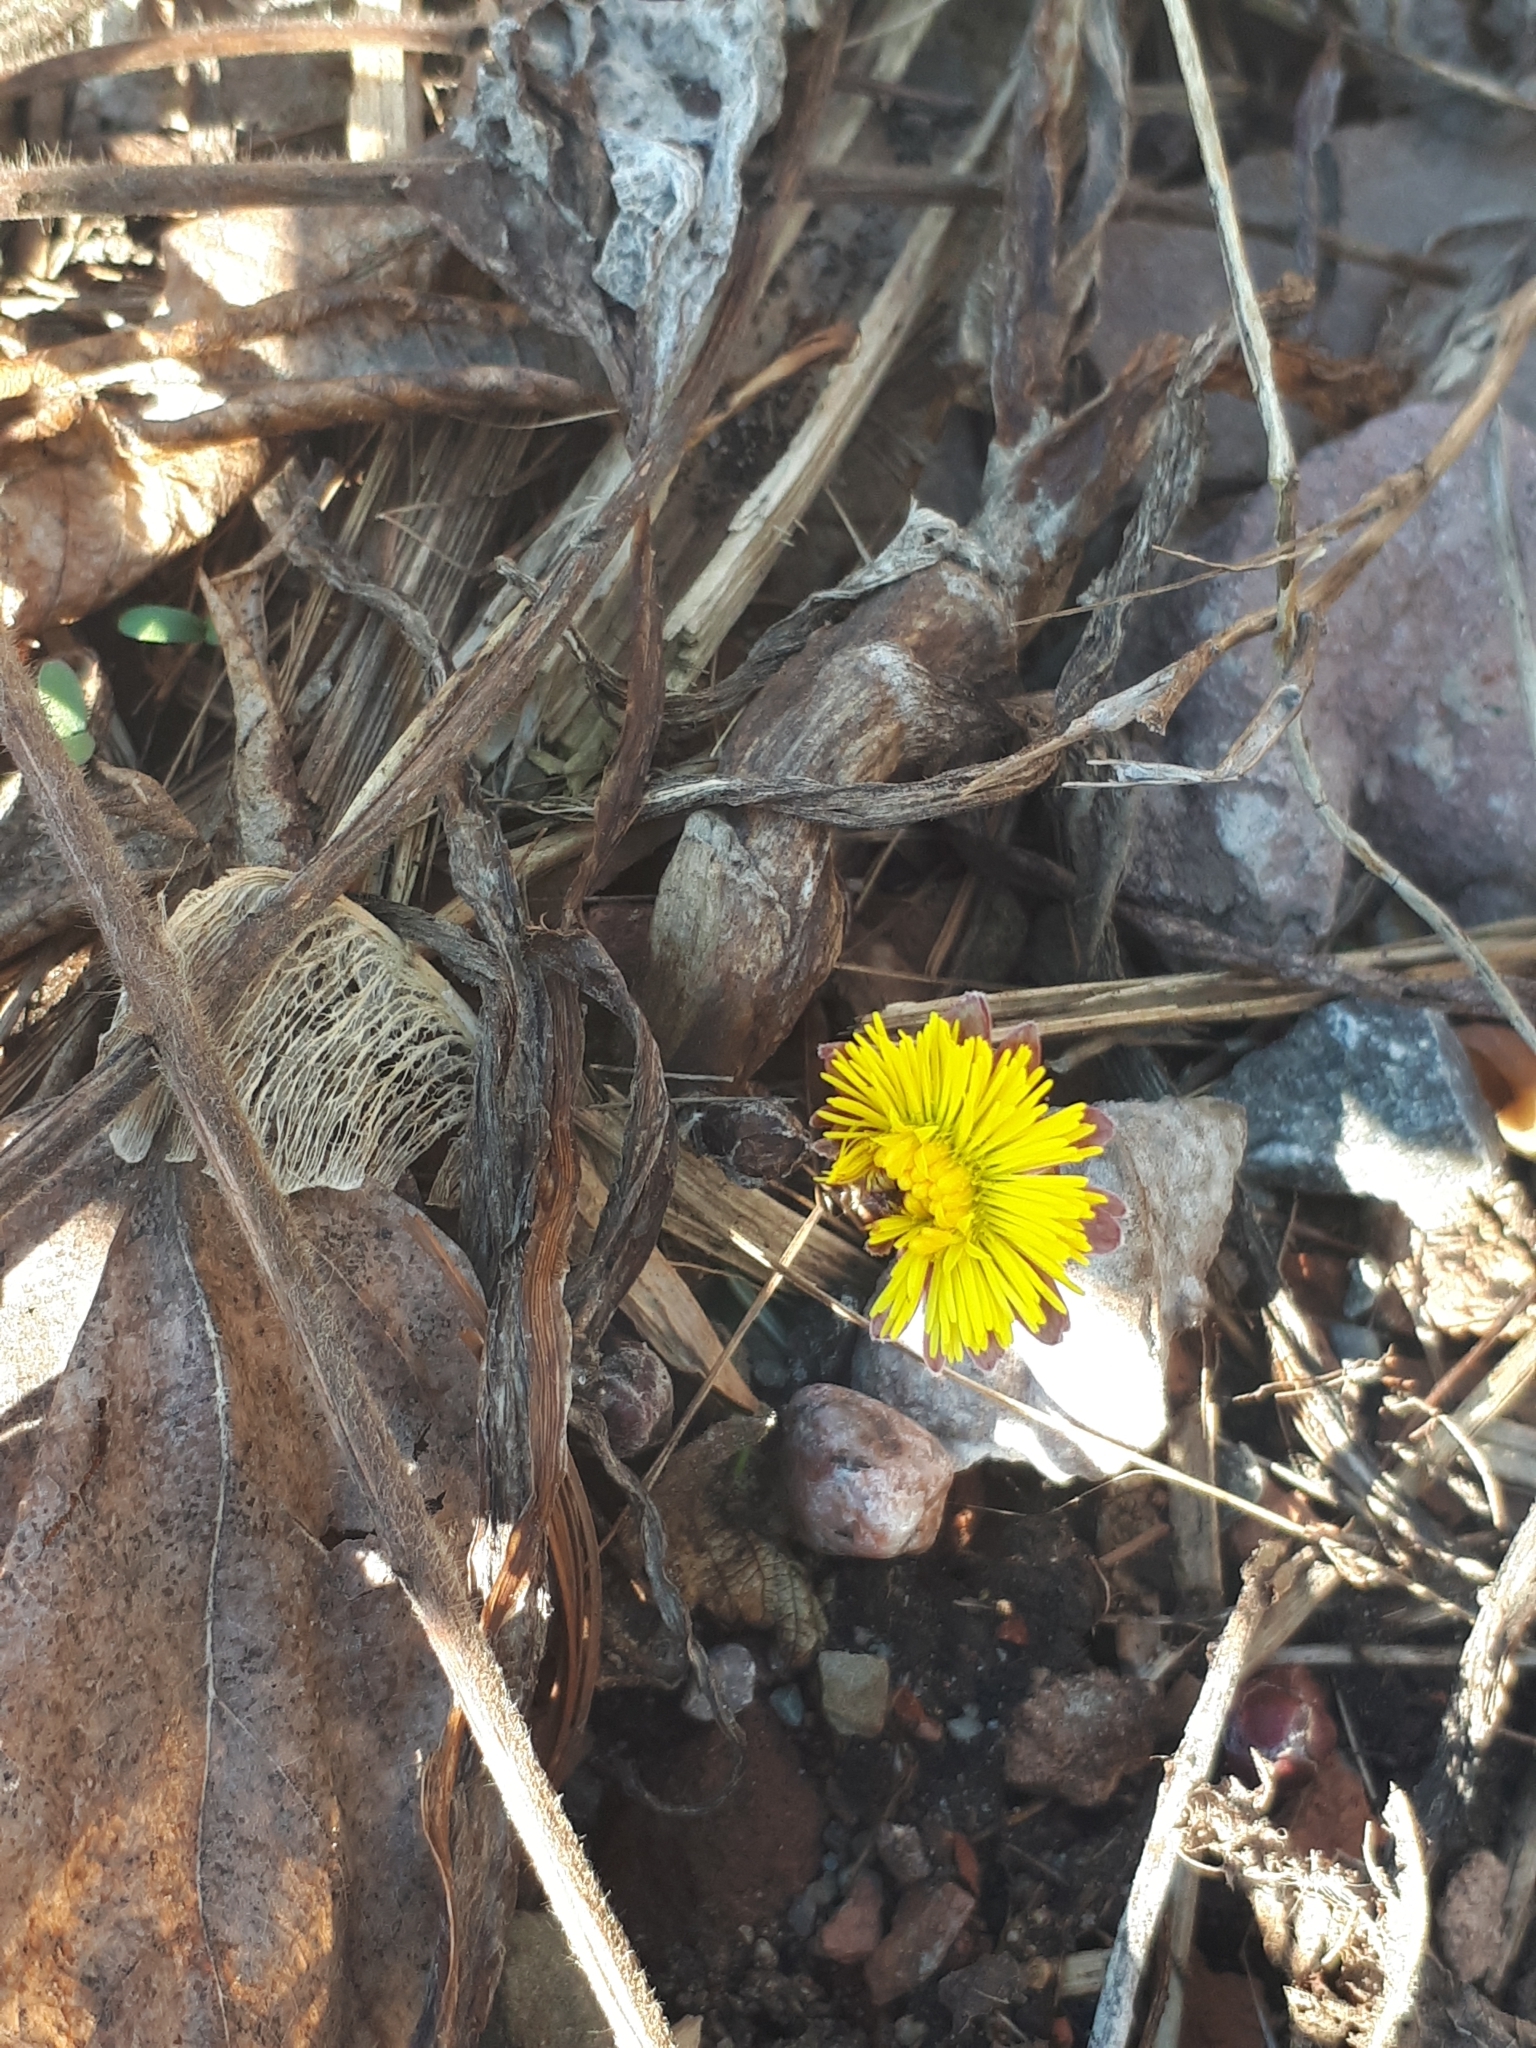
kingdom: Plantae
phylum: Tracheophyta
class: Magnoliopsida
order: Asterales
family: Asteraceae
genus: Tussilago
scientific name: Tussilago farfara
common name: Coltsfoot
